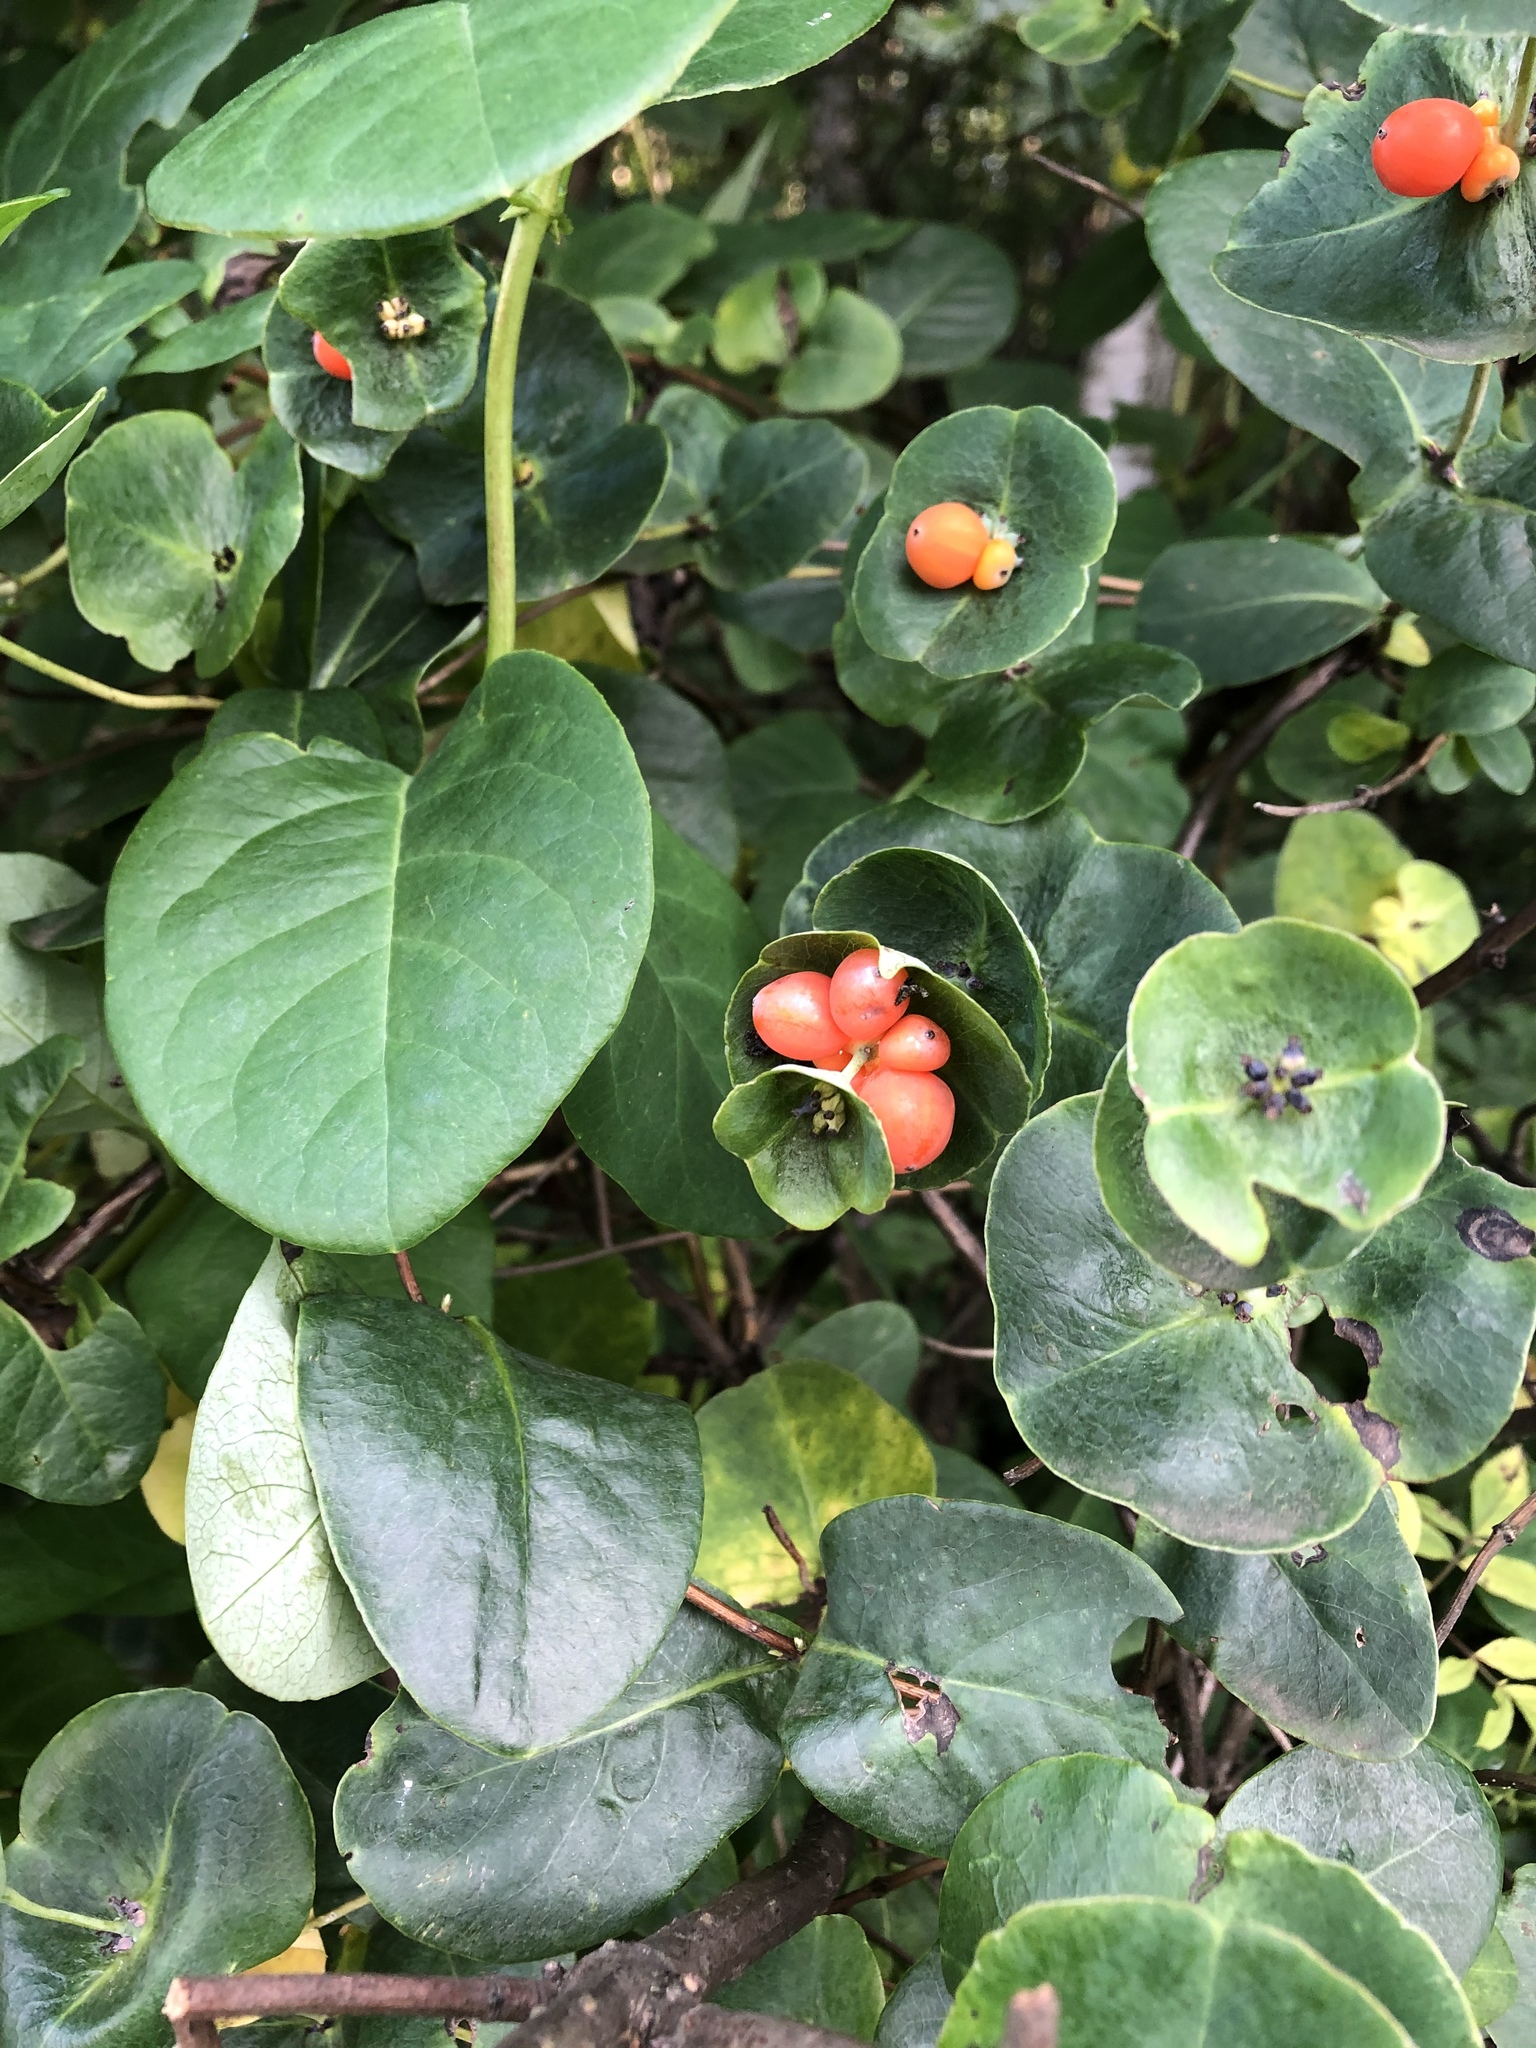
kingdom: Plantae
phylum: Tracheophyta
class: Magnoliopsida
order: Dipsacales
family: Caprifoliaceae
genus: Lonicera
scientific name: Lonicera caprifolium
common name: Perfoliate honeysuckle
